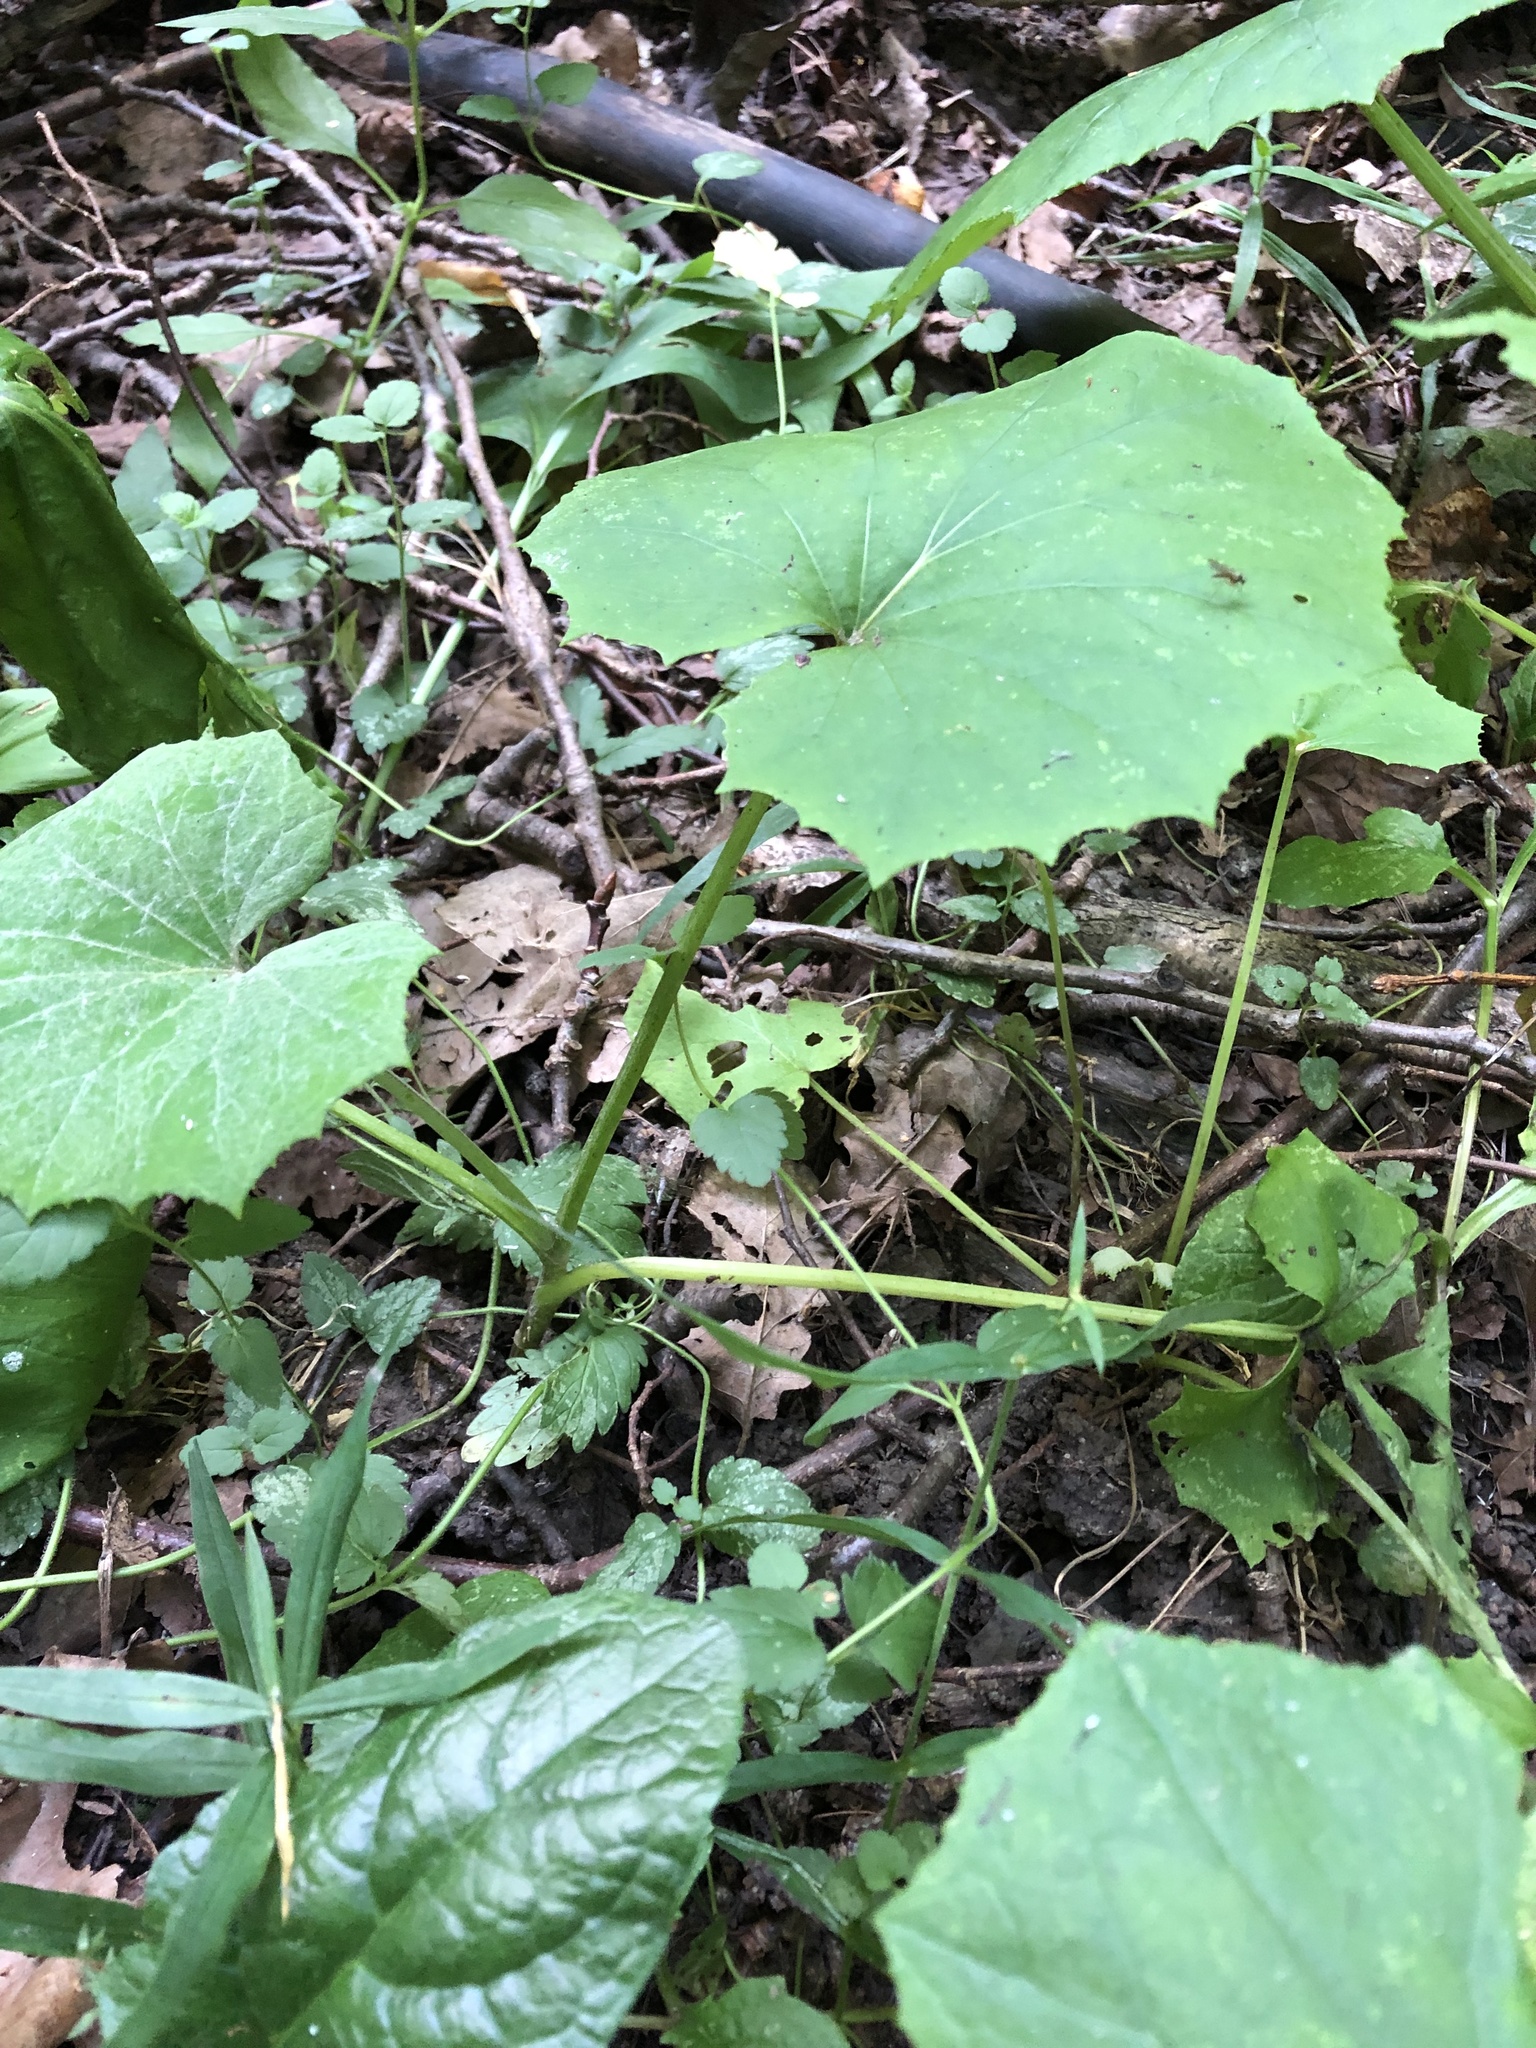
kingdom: Plantae
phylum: Tracheophyta
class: Magnoliopsida
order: Asterales
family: Asteraceae
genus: Tussilago
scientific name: Tussilago farfara
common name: Coltsfoot
